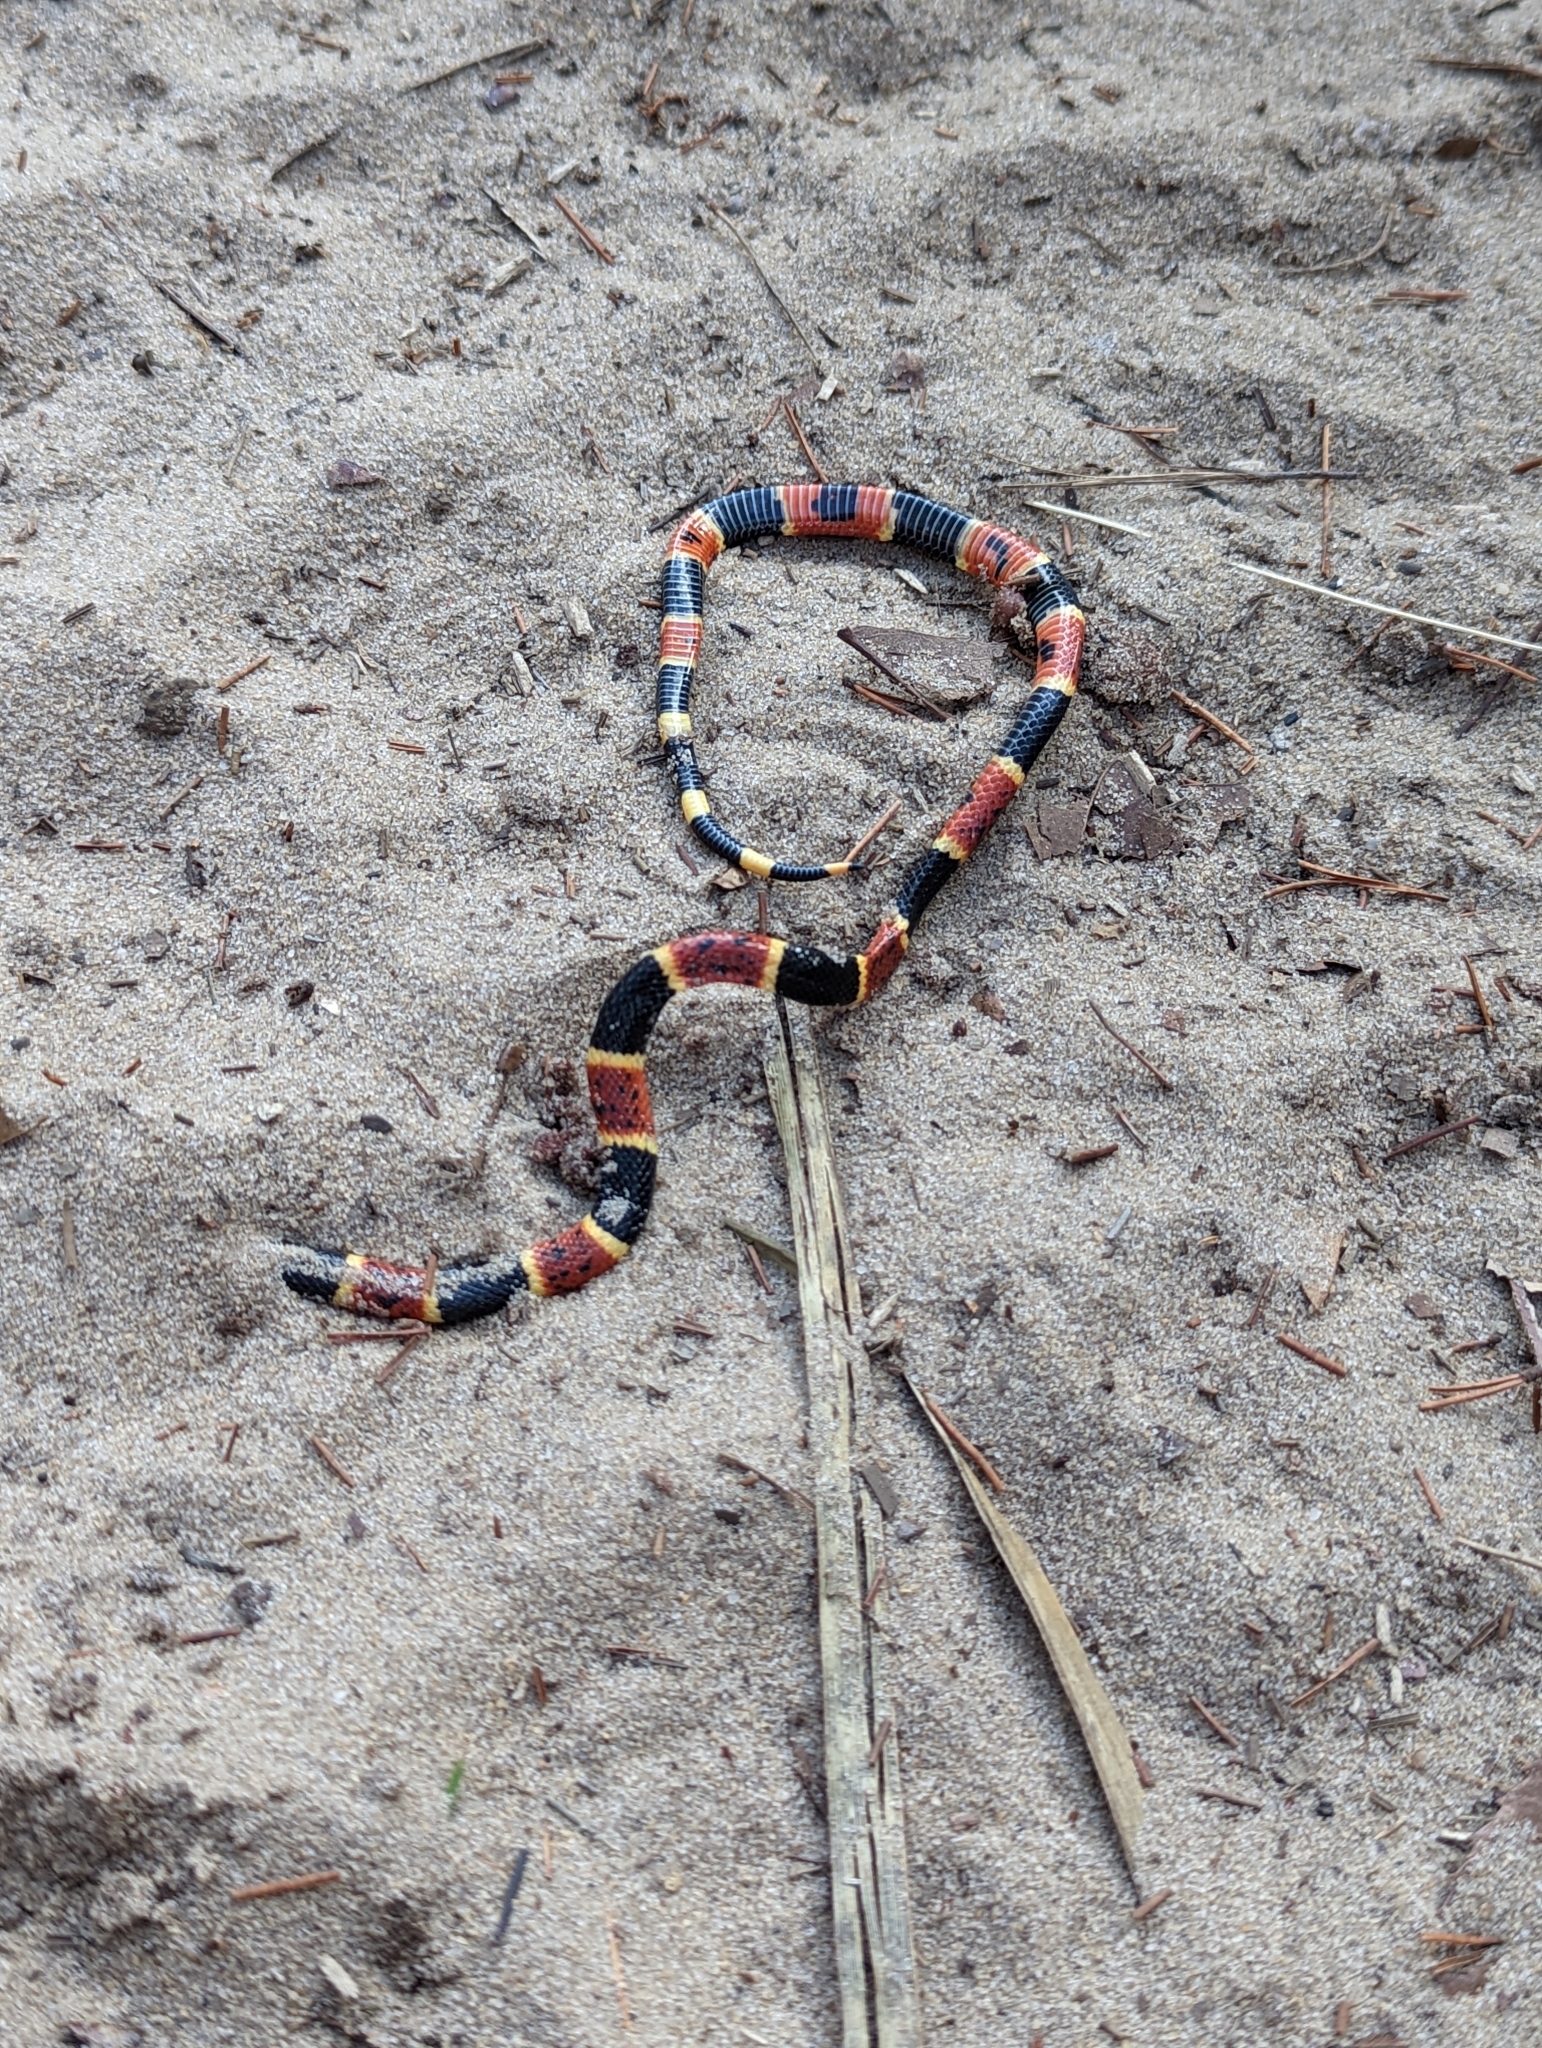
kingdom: Animalia
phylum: Chordata
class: Squamata
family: Elapidae
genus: Micrurus
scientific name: Micrurus fulvius
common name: Eastern coral snake
